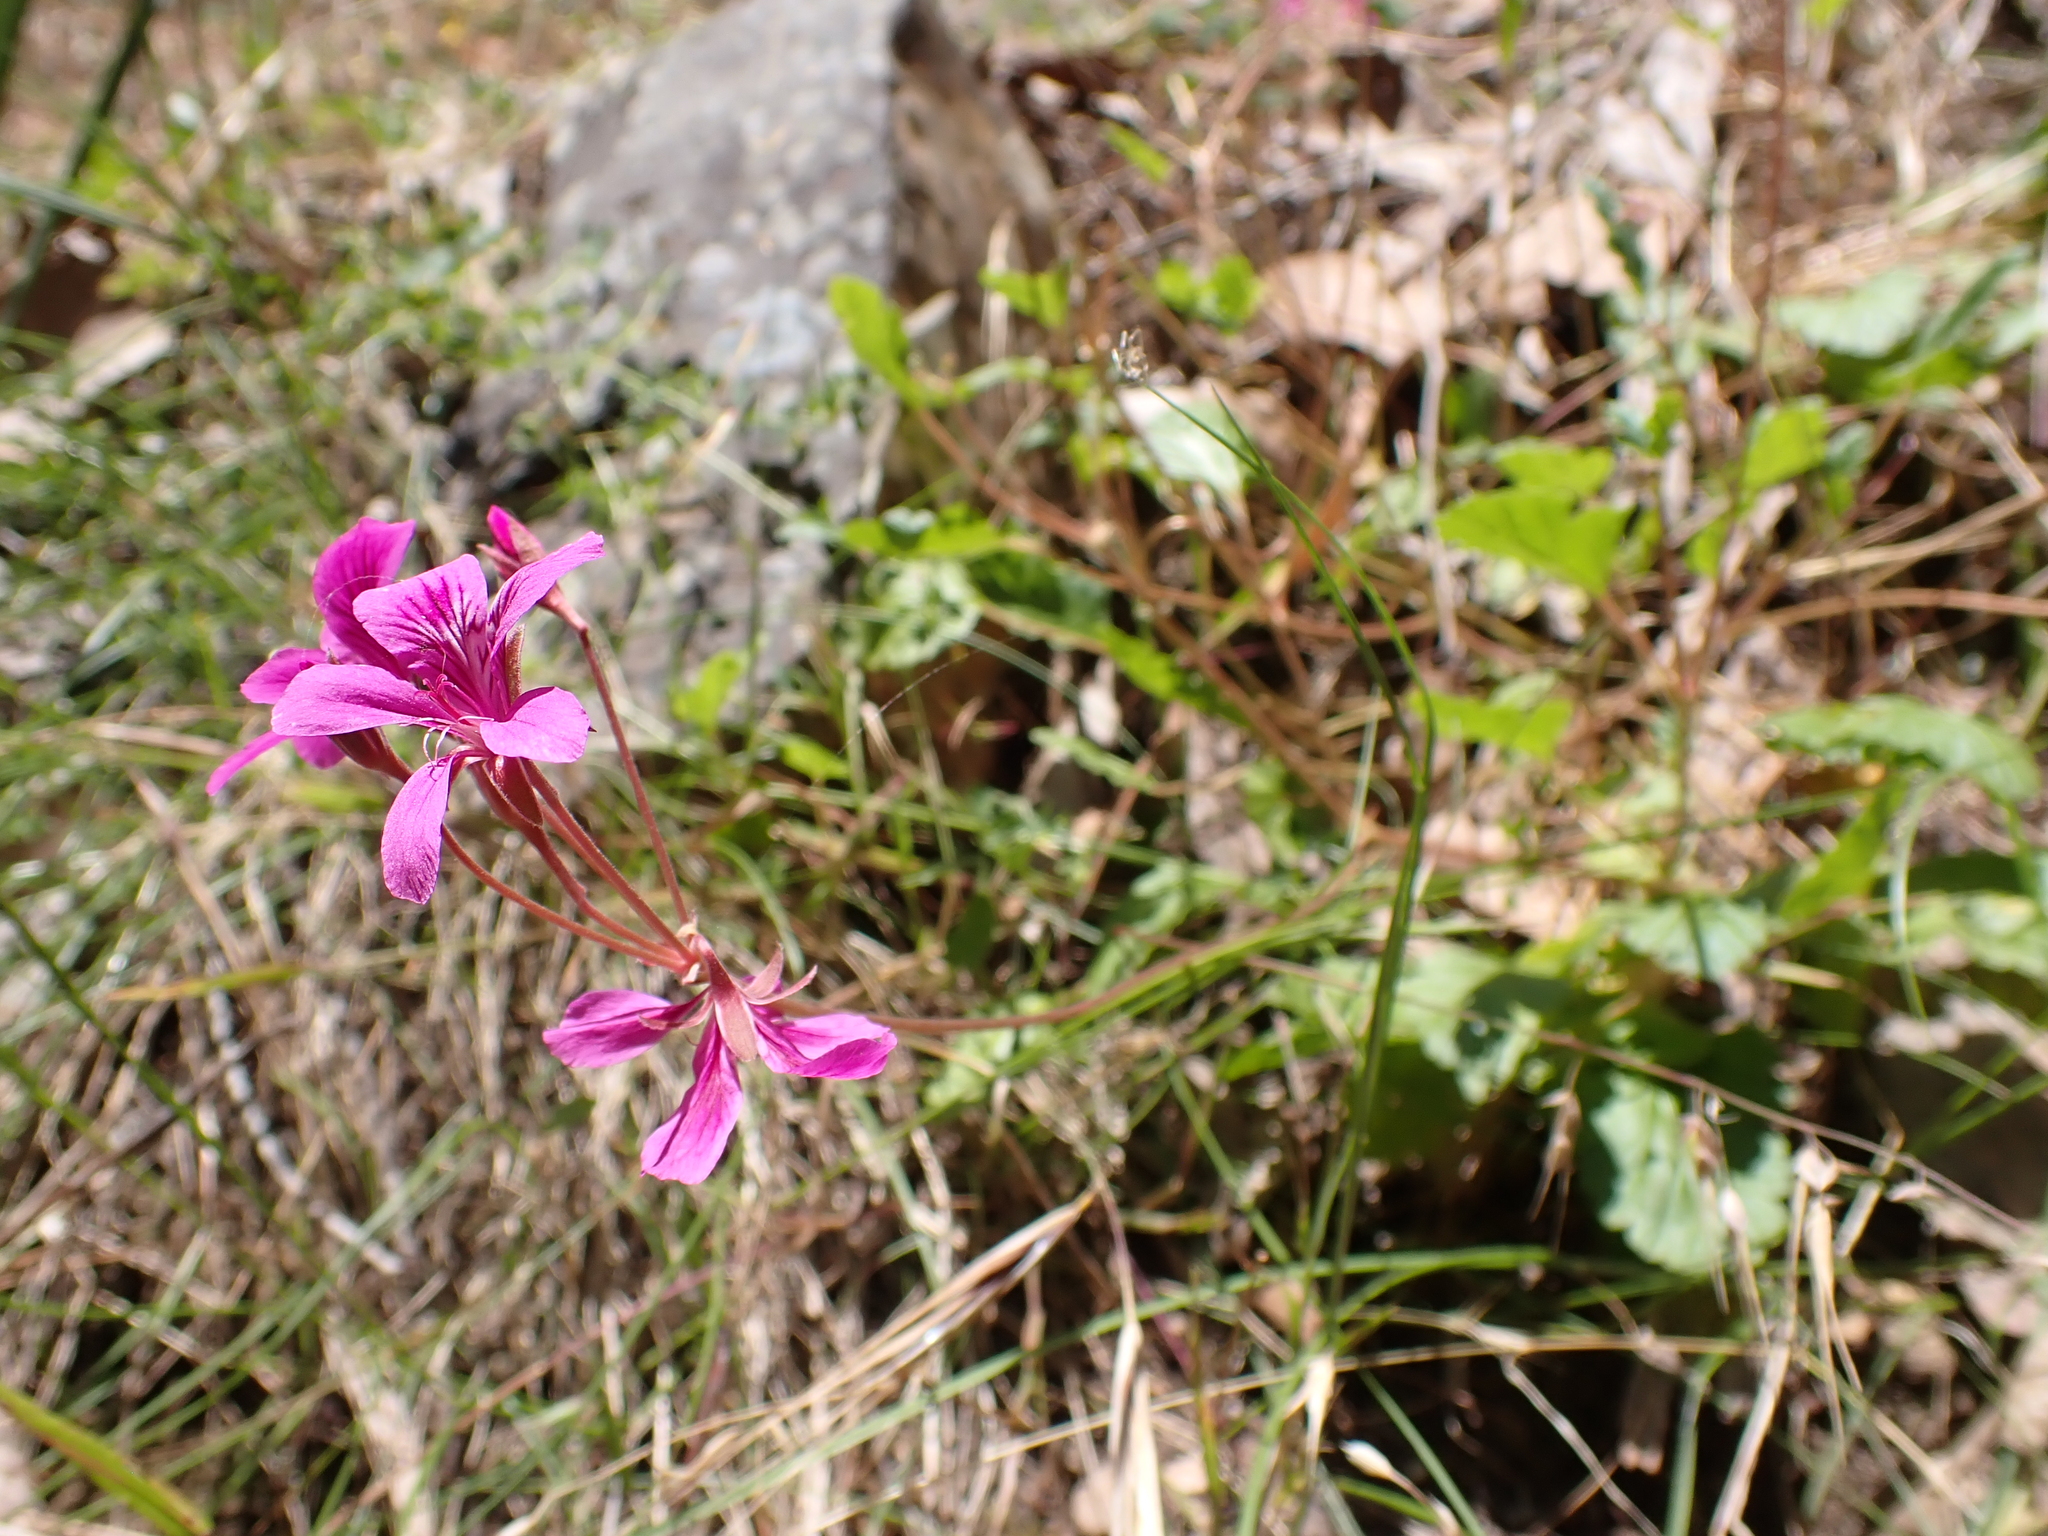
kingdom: Plantae
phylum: Tracheophyta
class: Magnoliopsida
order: Geraniales
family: Geraniaceae
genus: Pelargonium
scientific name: Pelargonium rodneyanum
